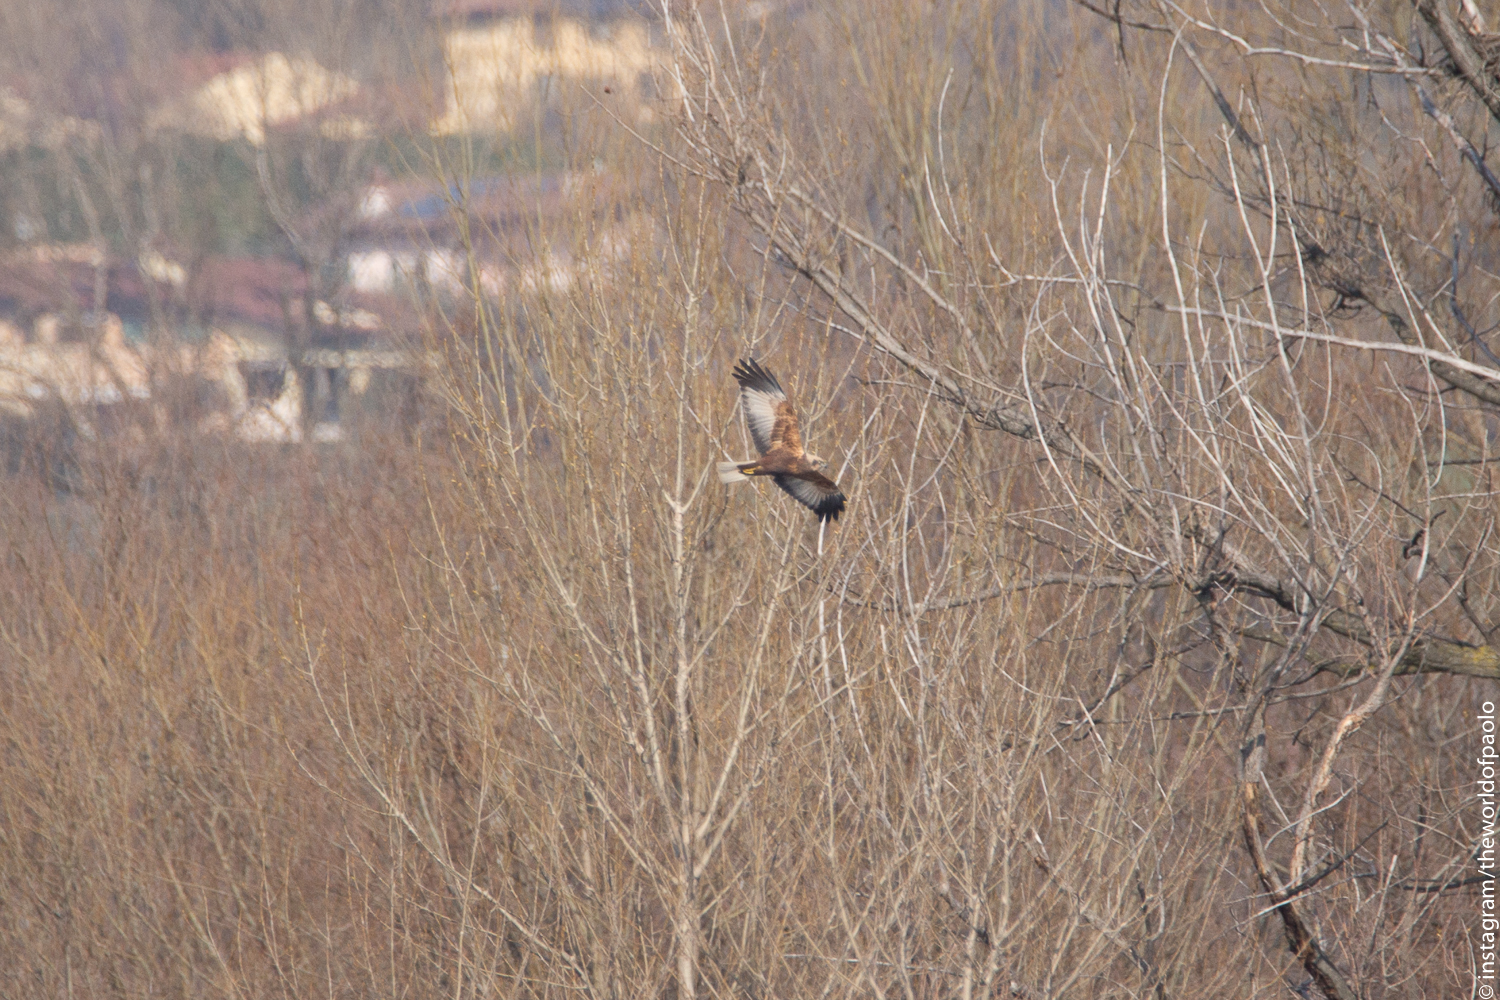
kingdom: Animalia
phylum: Chordata
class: Aves
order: Accipitriformes
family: Accipitridae
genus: Circus
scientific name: Circus aeruginosus
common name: Western marsh harrier
